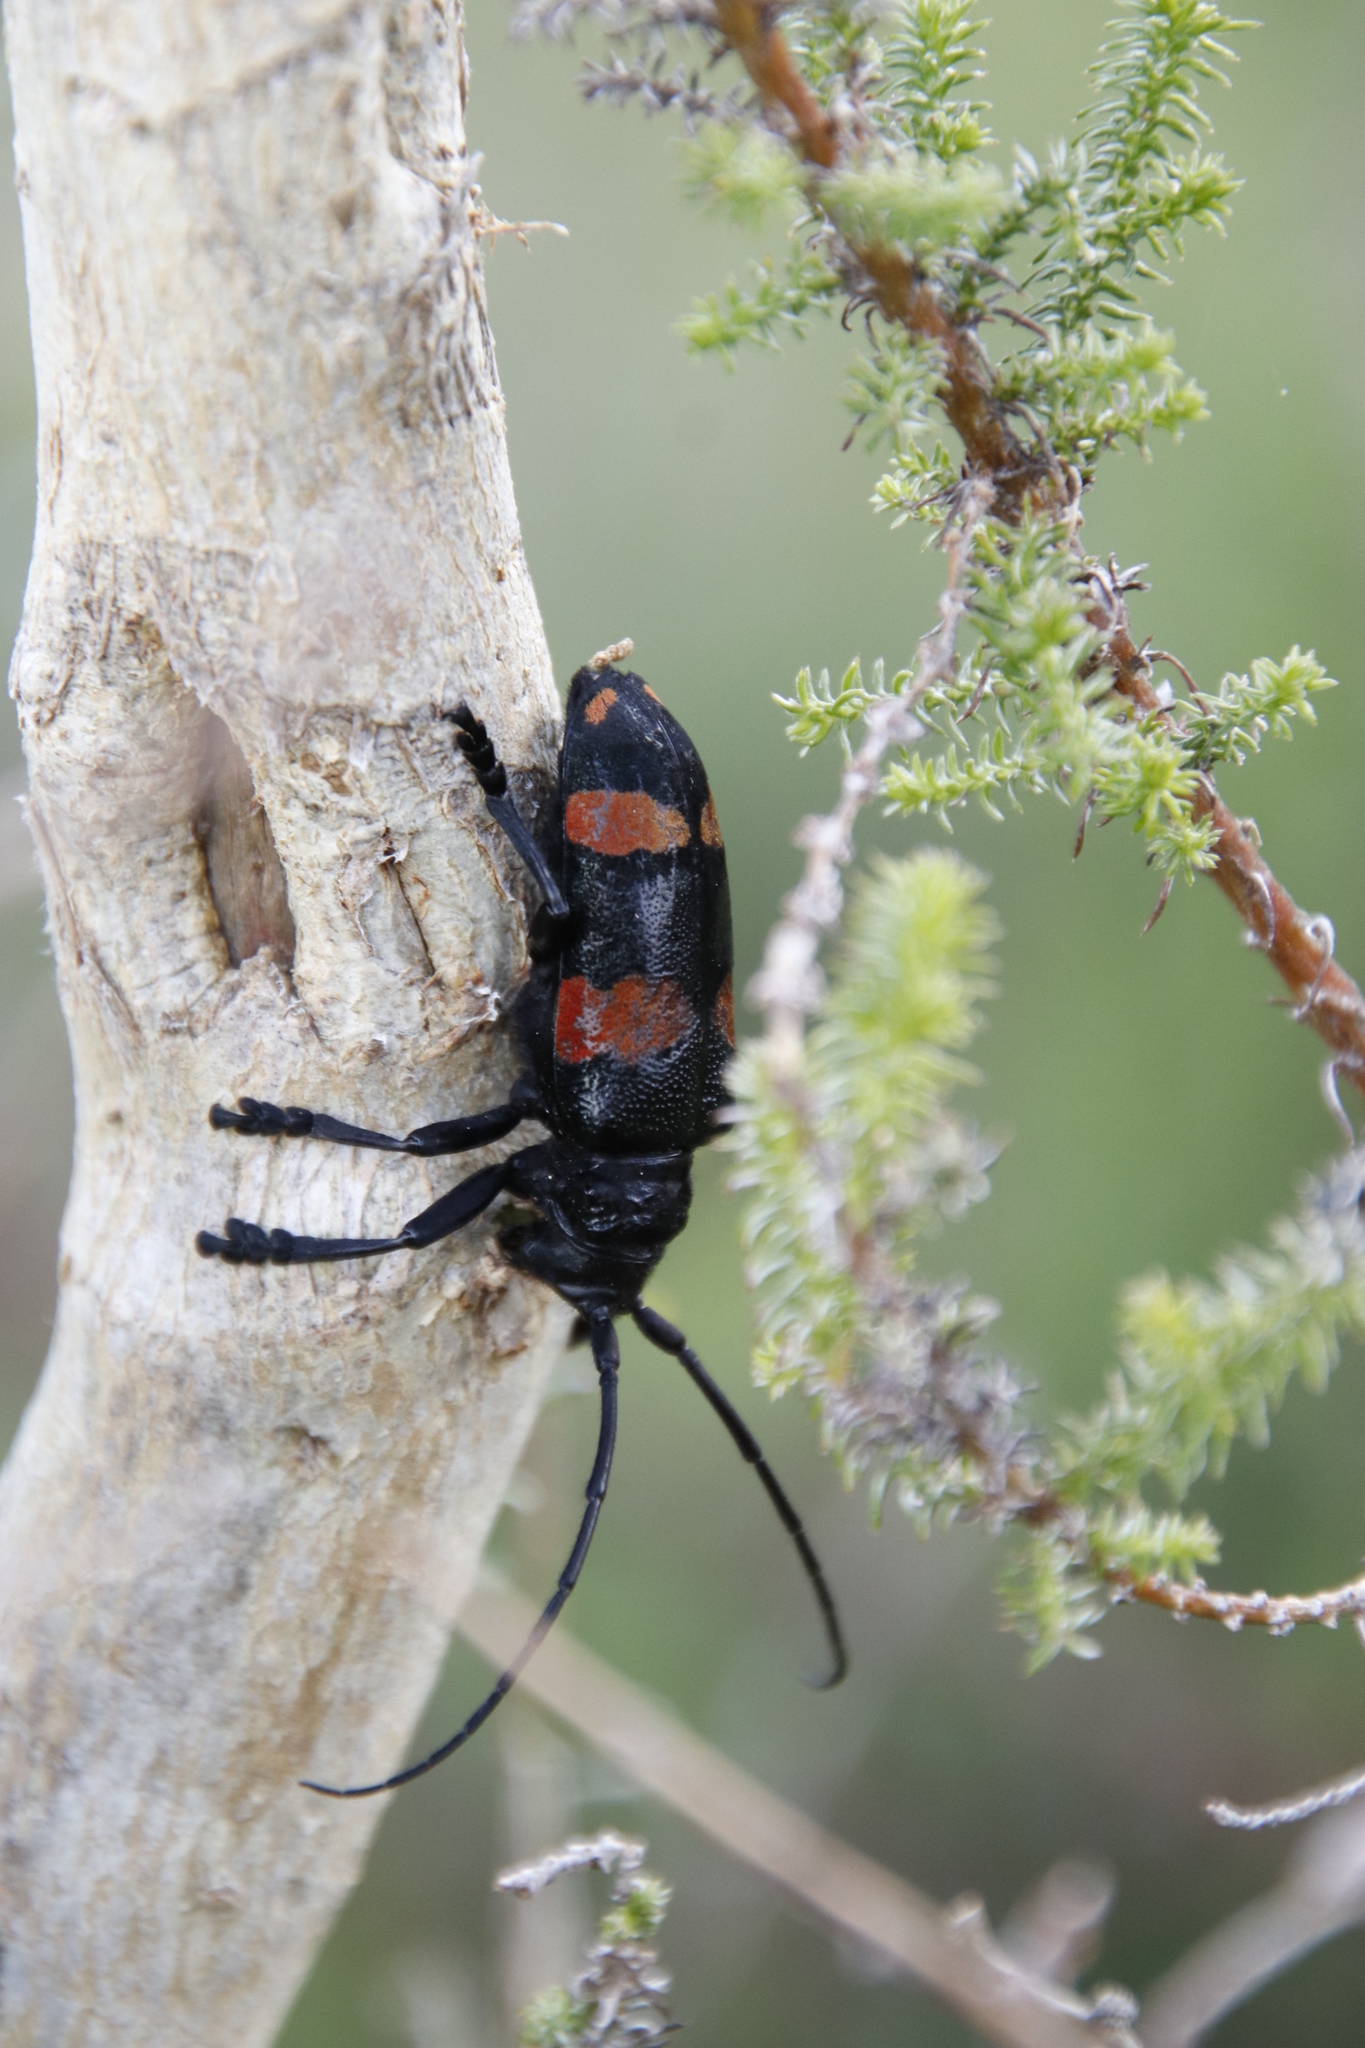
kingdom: Animalia
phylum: Arthropoda
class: Insecta
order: Coleoptera
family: Cerambycidae
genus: Ceroplesis
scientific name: Ceroplesis aethiops
